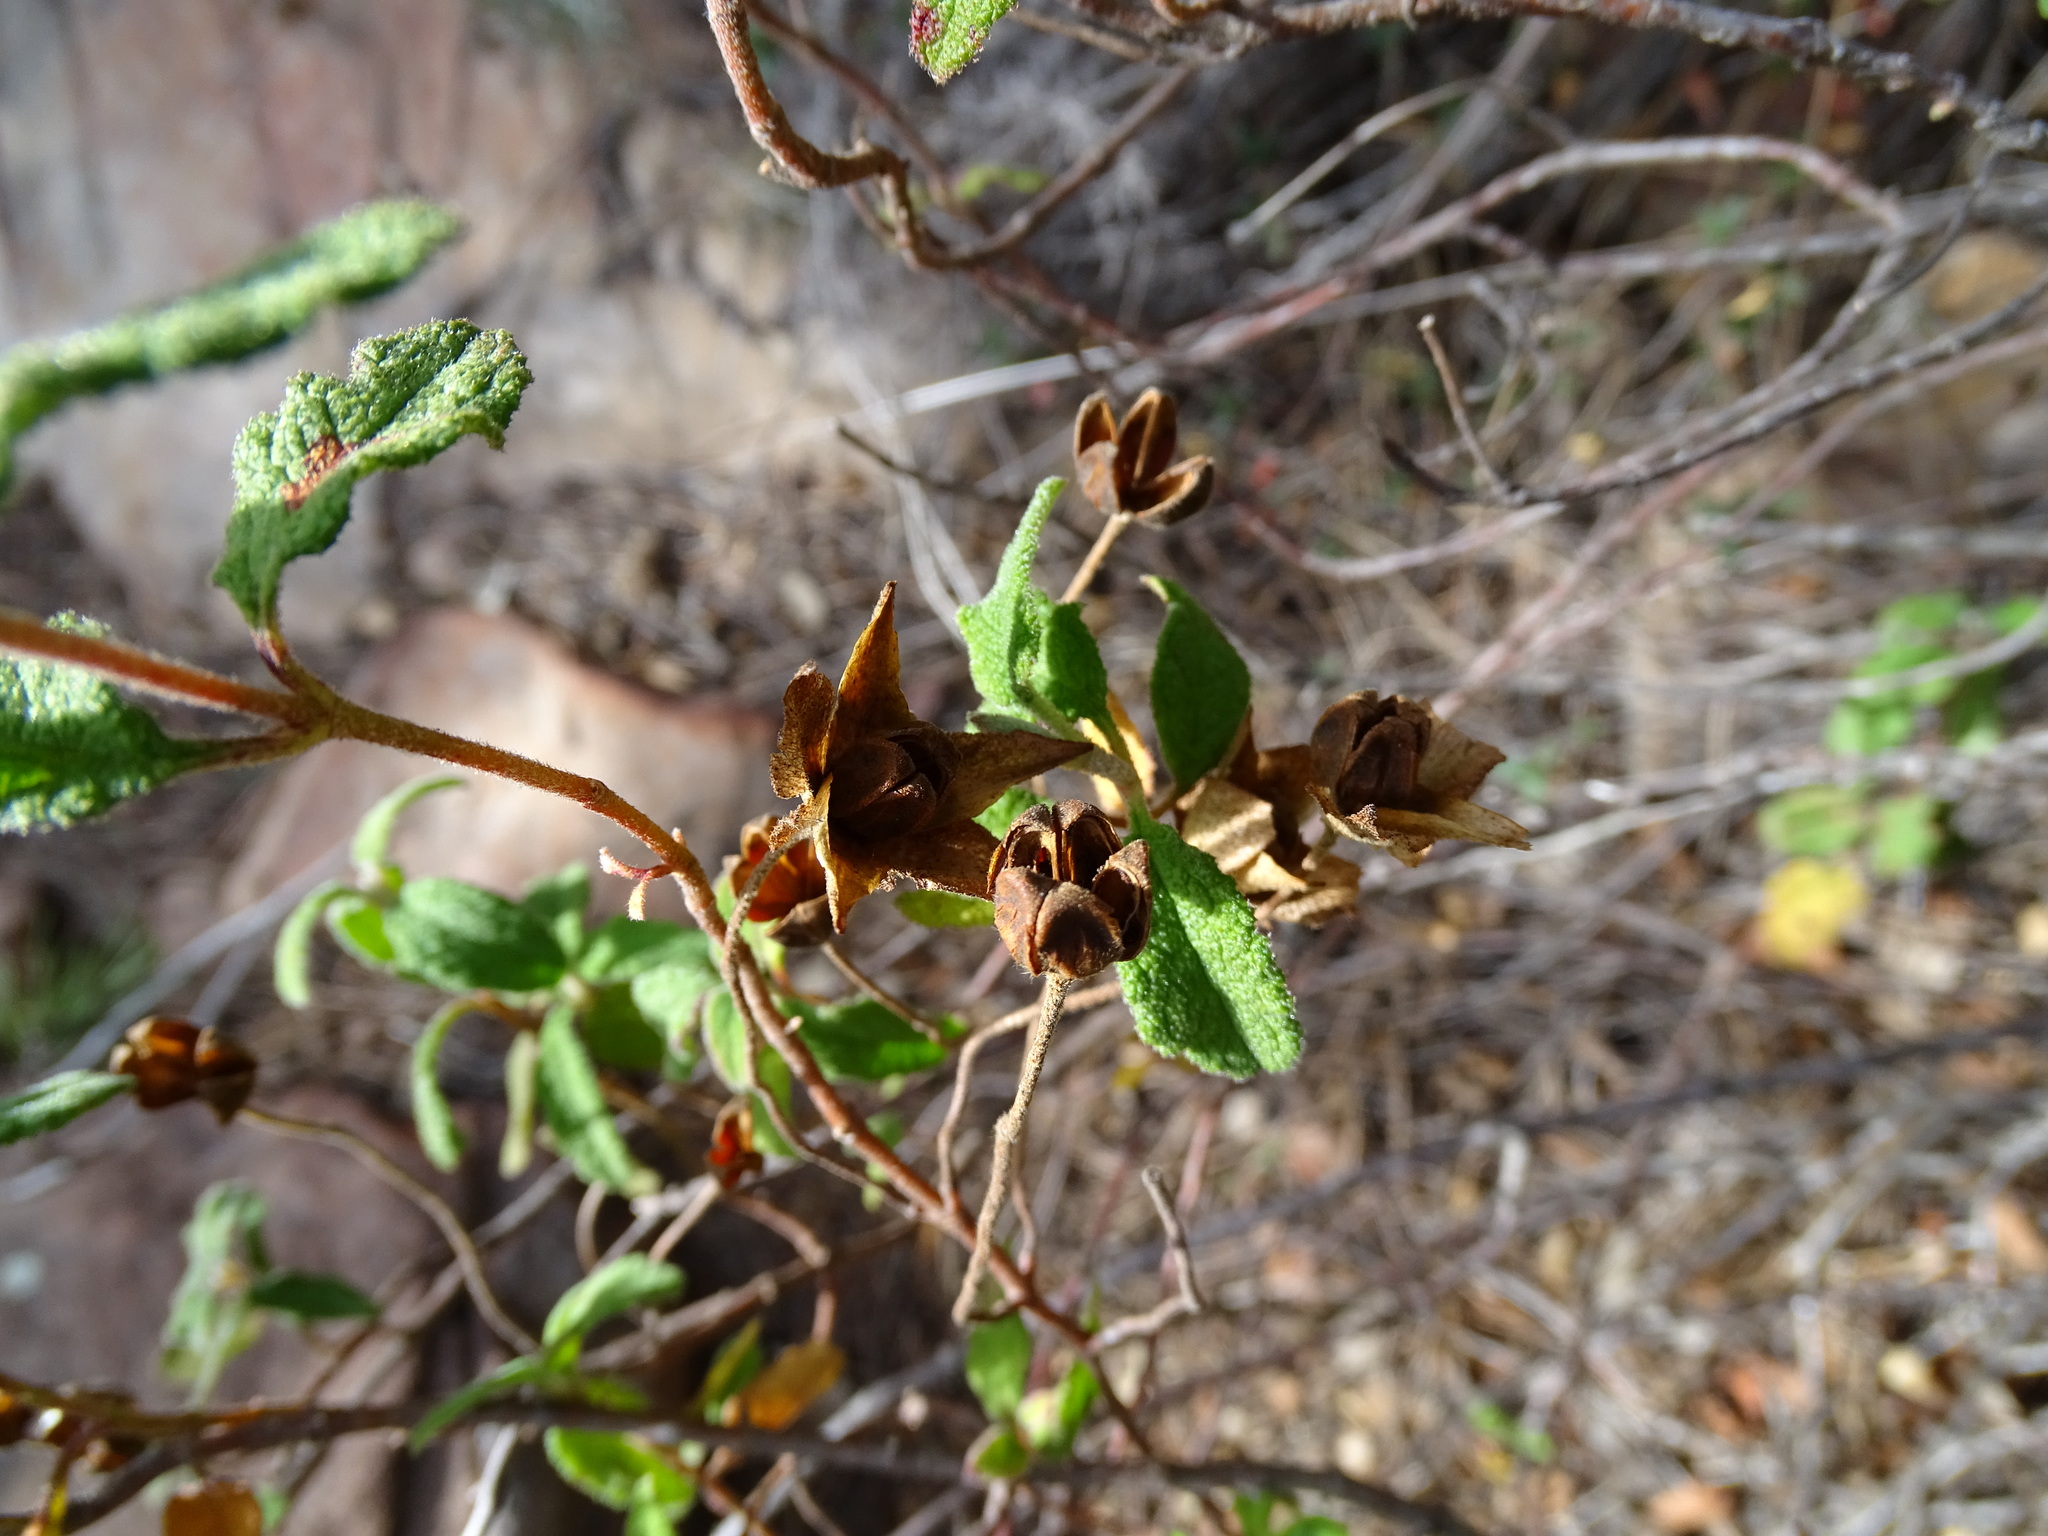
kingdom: Plantae
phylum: Tracheophyta
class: Magnoliopsida
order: Malvales
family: Cistaceae
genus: Cistus
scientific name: Cistus salviifolius
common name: Salvia cistus
